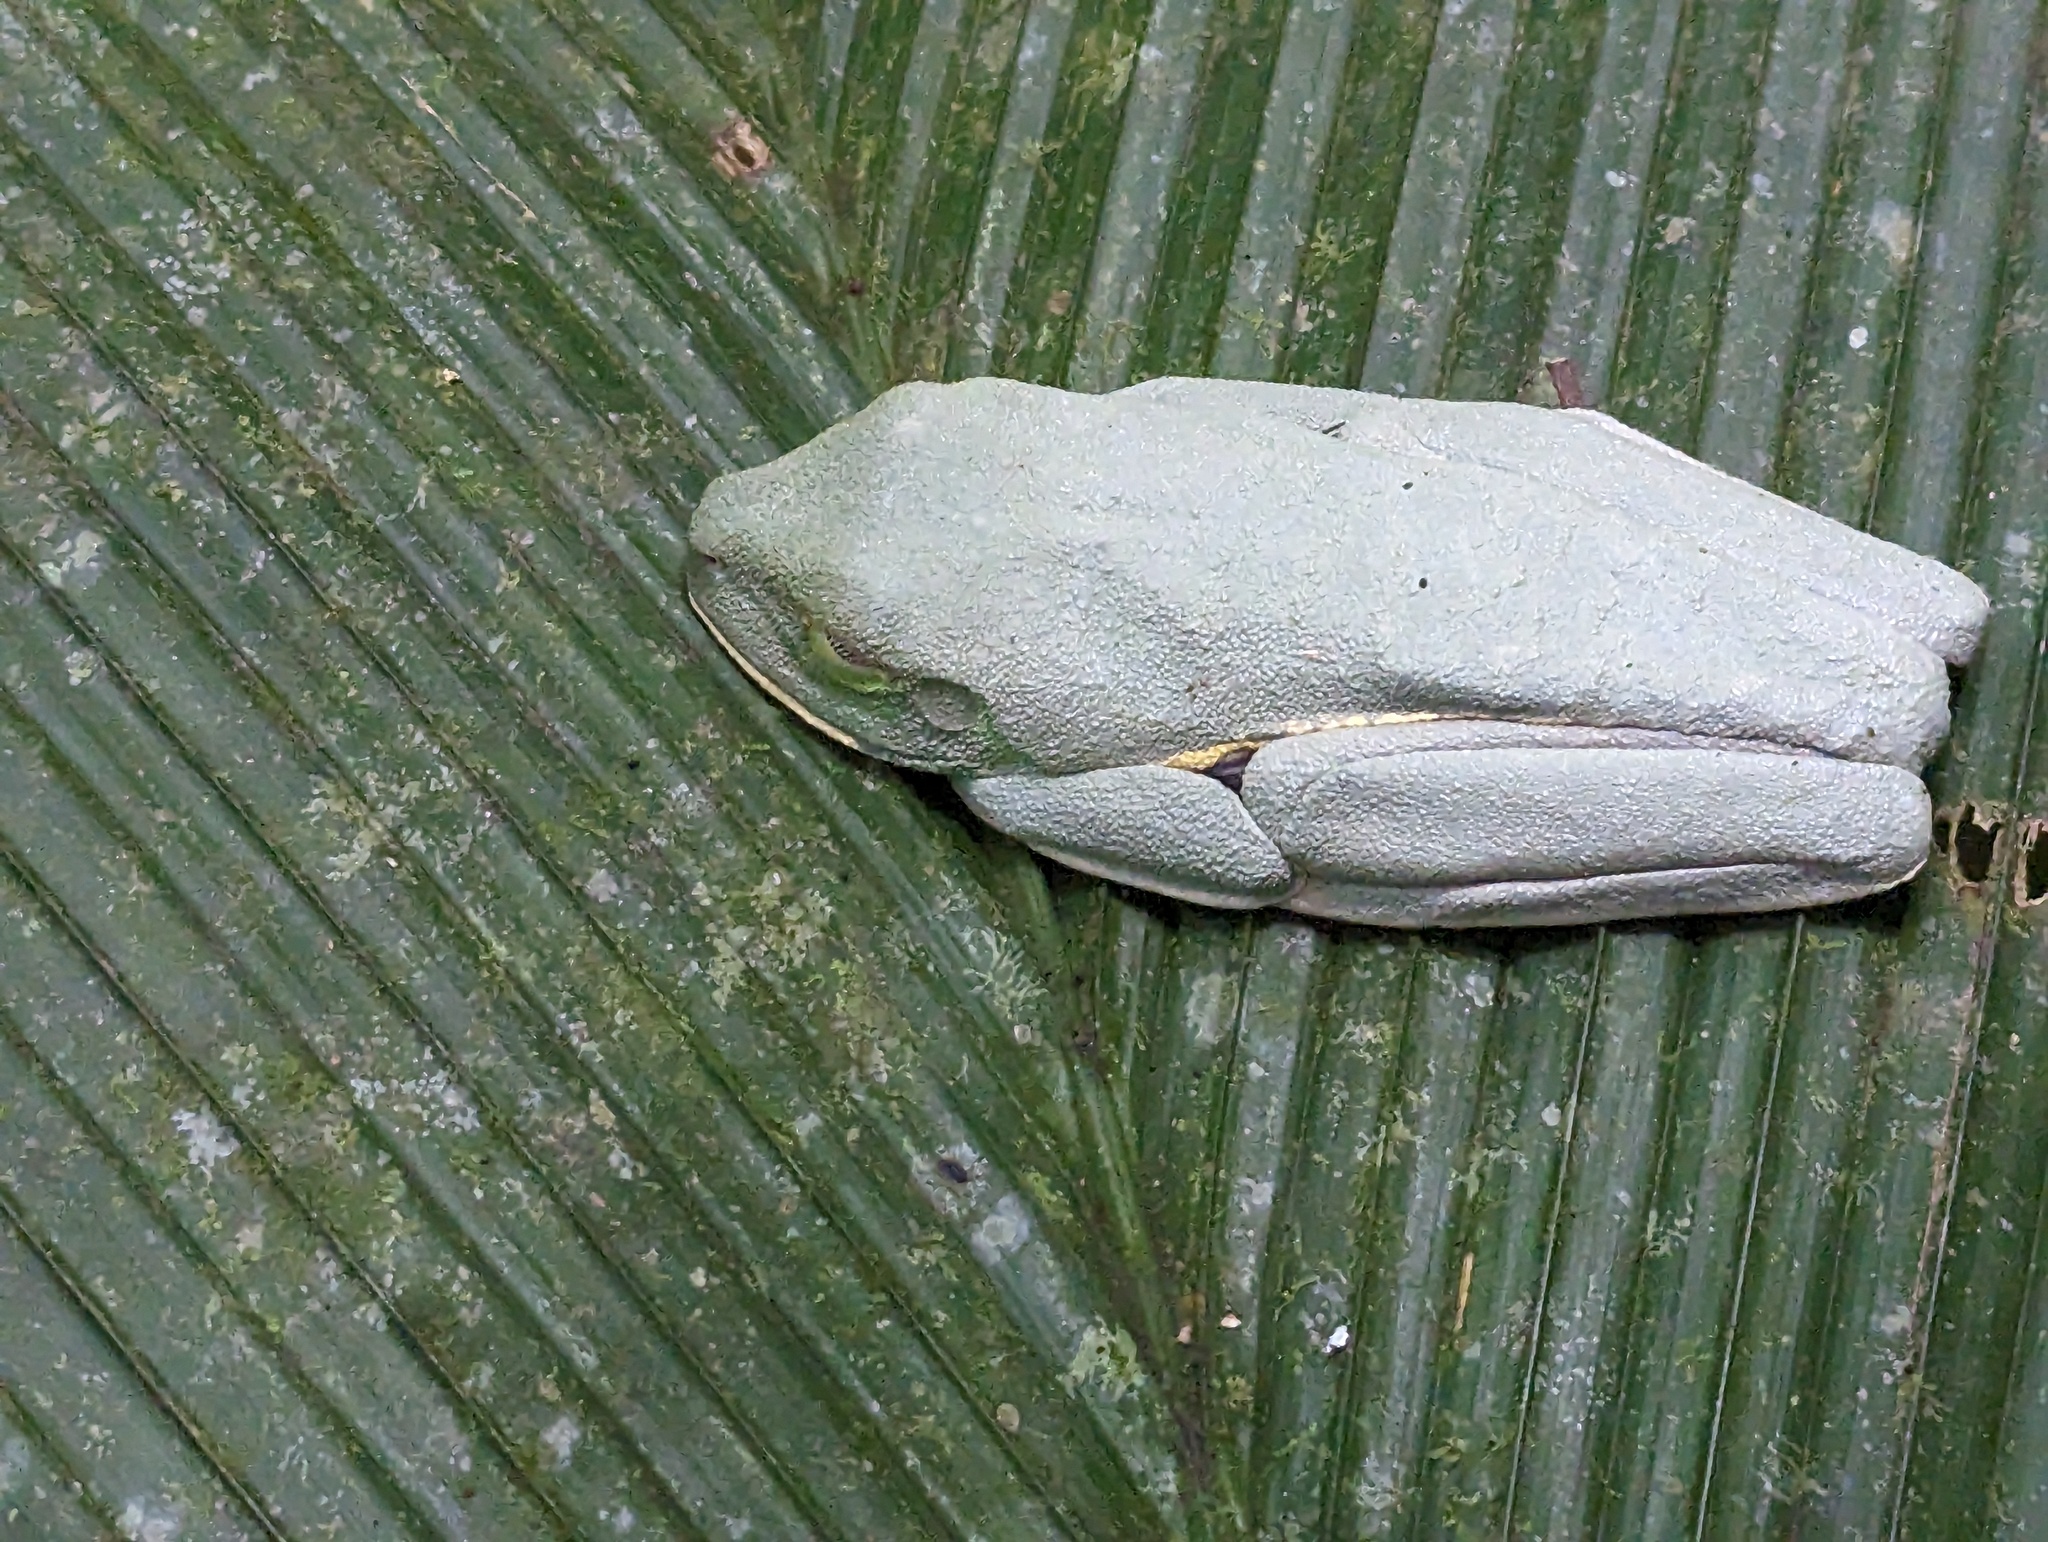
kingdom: Animalia
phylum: Chordata
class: Amphibia
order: Anura
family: Phyllomedusidae
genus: Agalychnis
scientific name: Agalychnis callidryas
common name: Red-eyed treefrog
